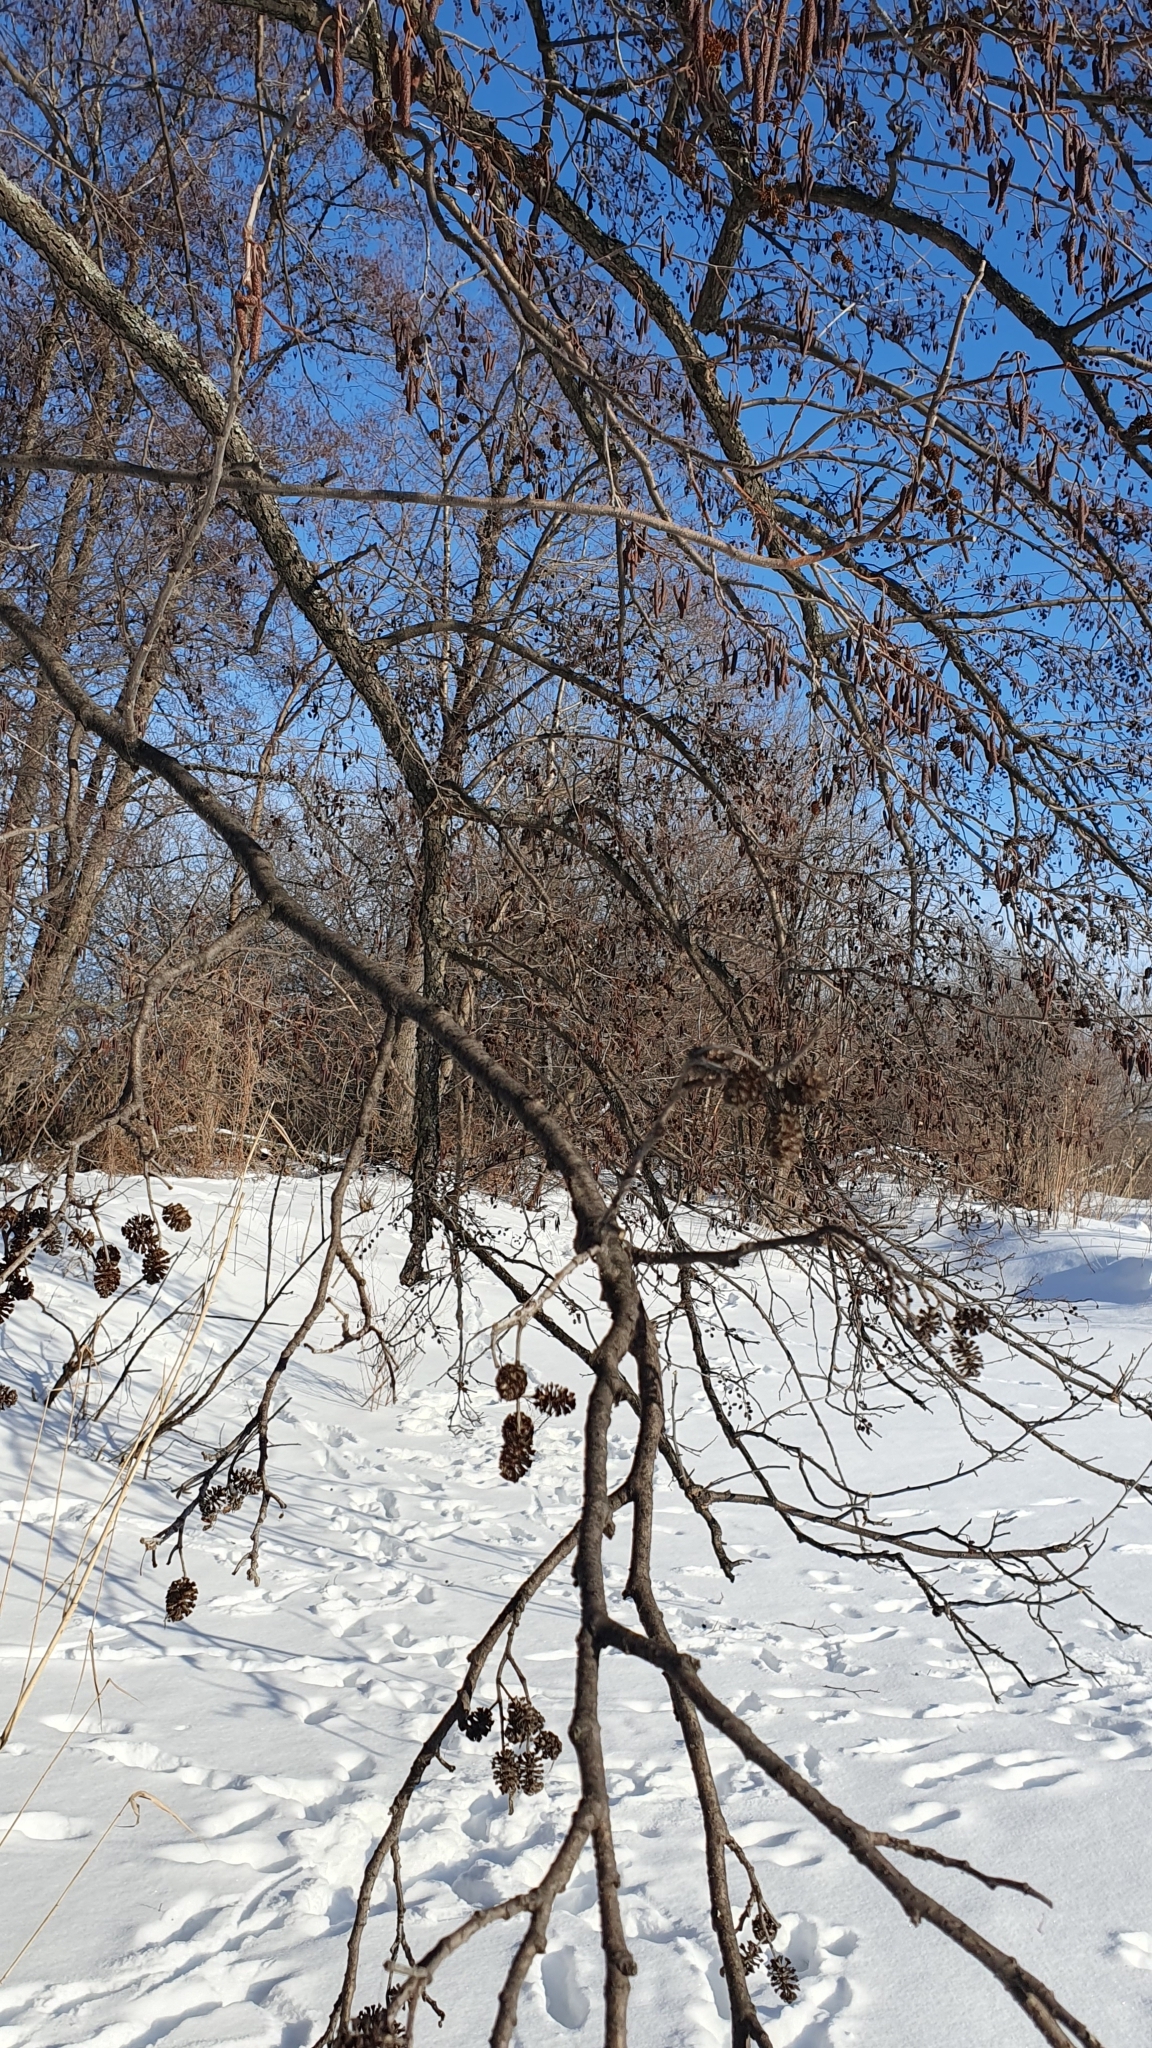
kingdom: Plantae
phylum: Tracheophyta
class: Magnoliopsida
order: Fagales
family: Betulaceae
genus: Alnus
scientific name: Alnus glutinosa
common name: Black alder
